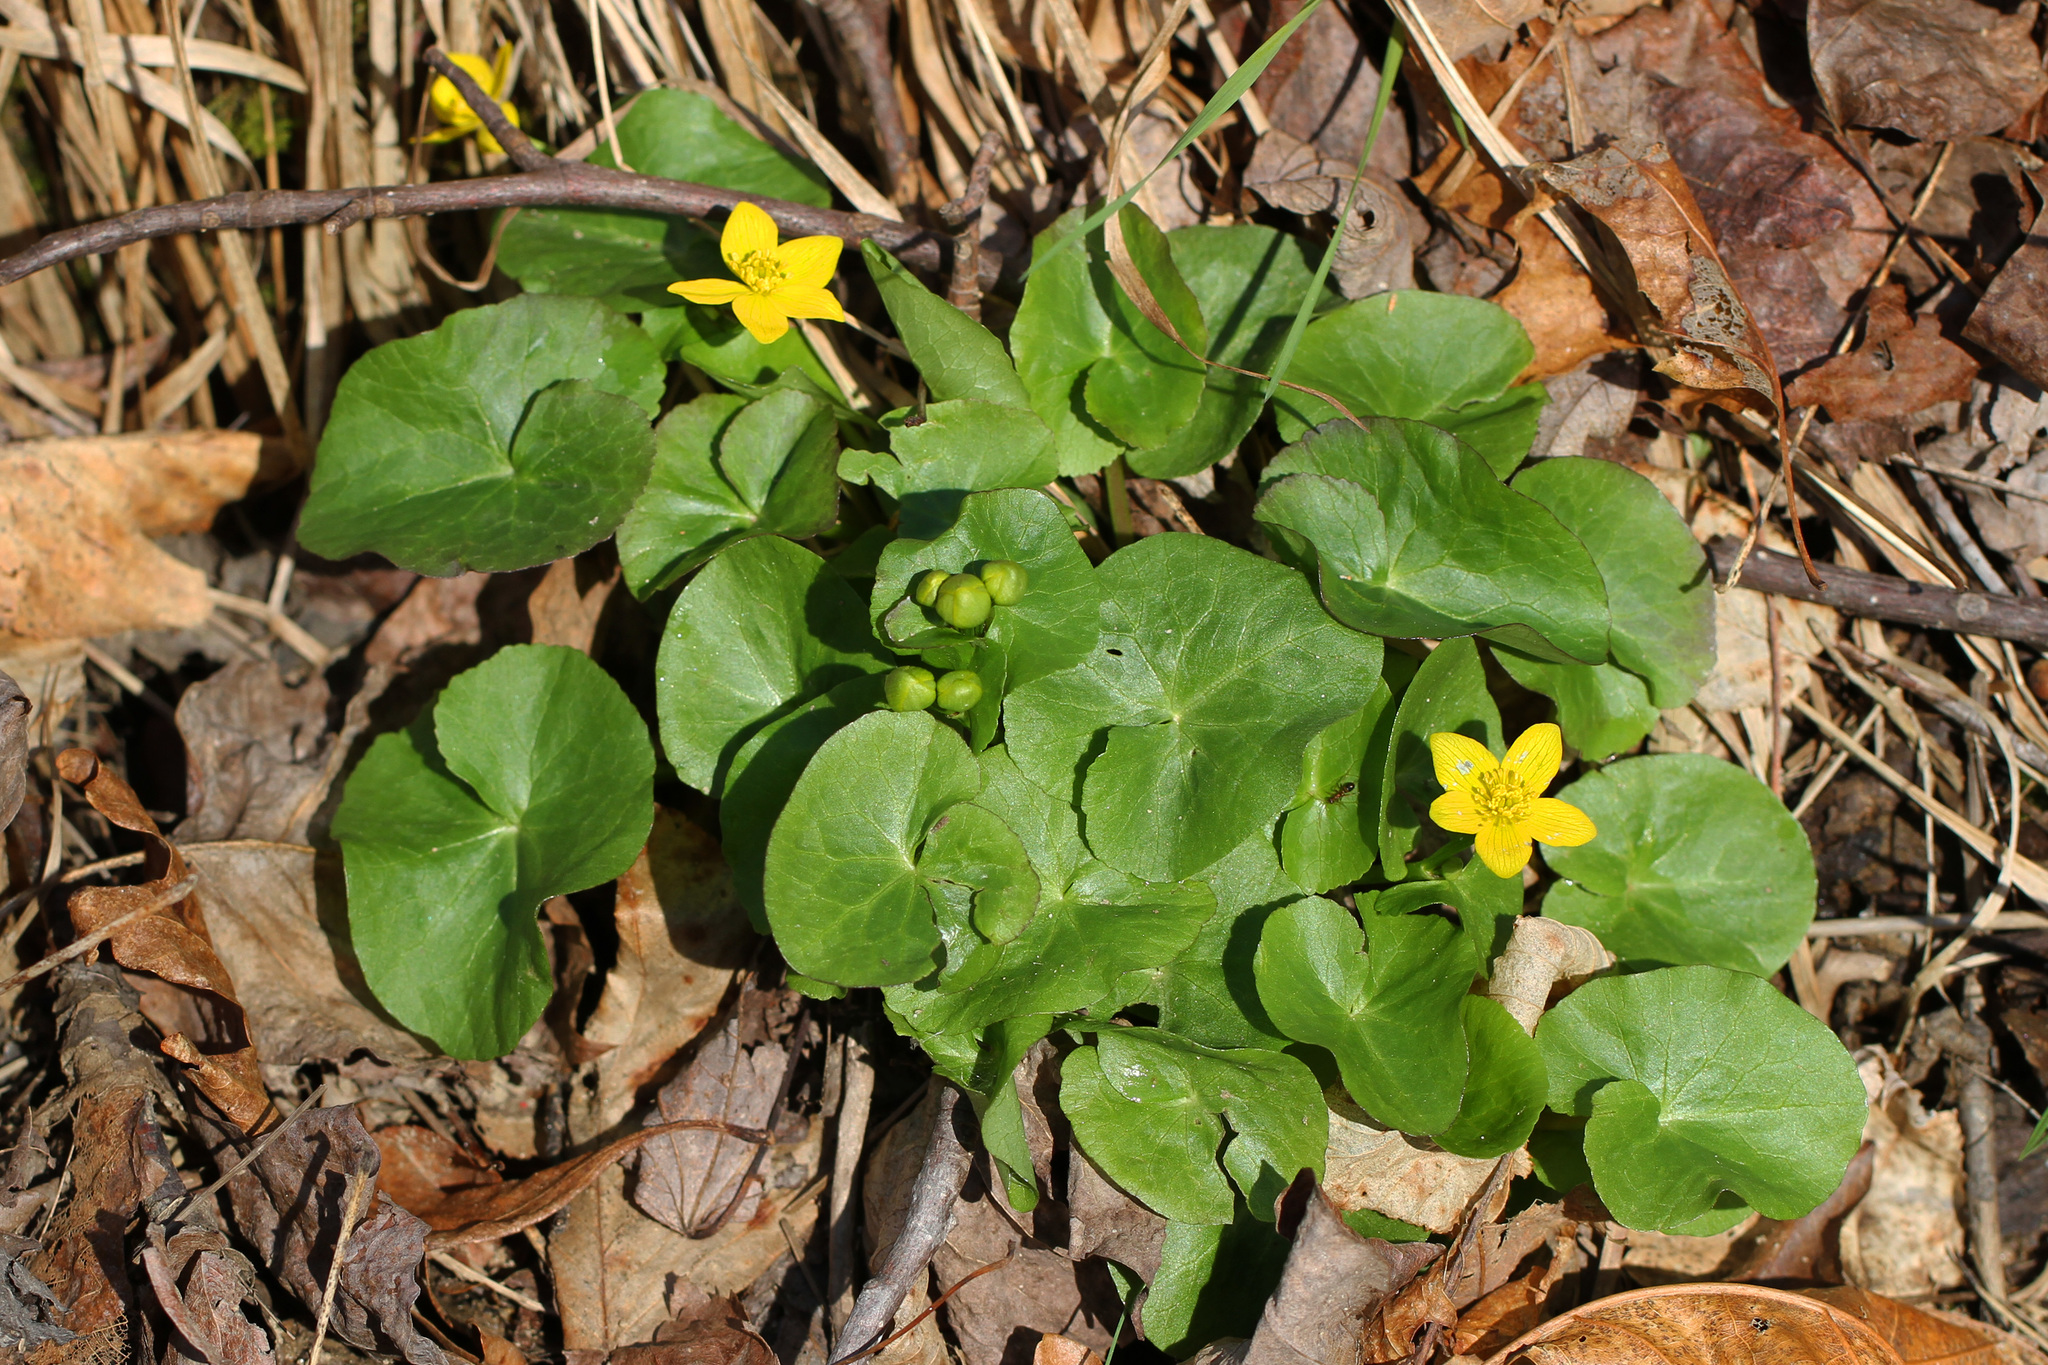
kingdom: Plantae
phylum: Tracheophyta
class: Magnoliopsida
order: Ranunculales
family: Ranunculaceae
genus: Caltha
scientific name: Caltha palustris
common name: Marsh marigold
